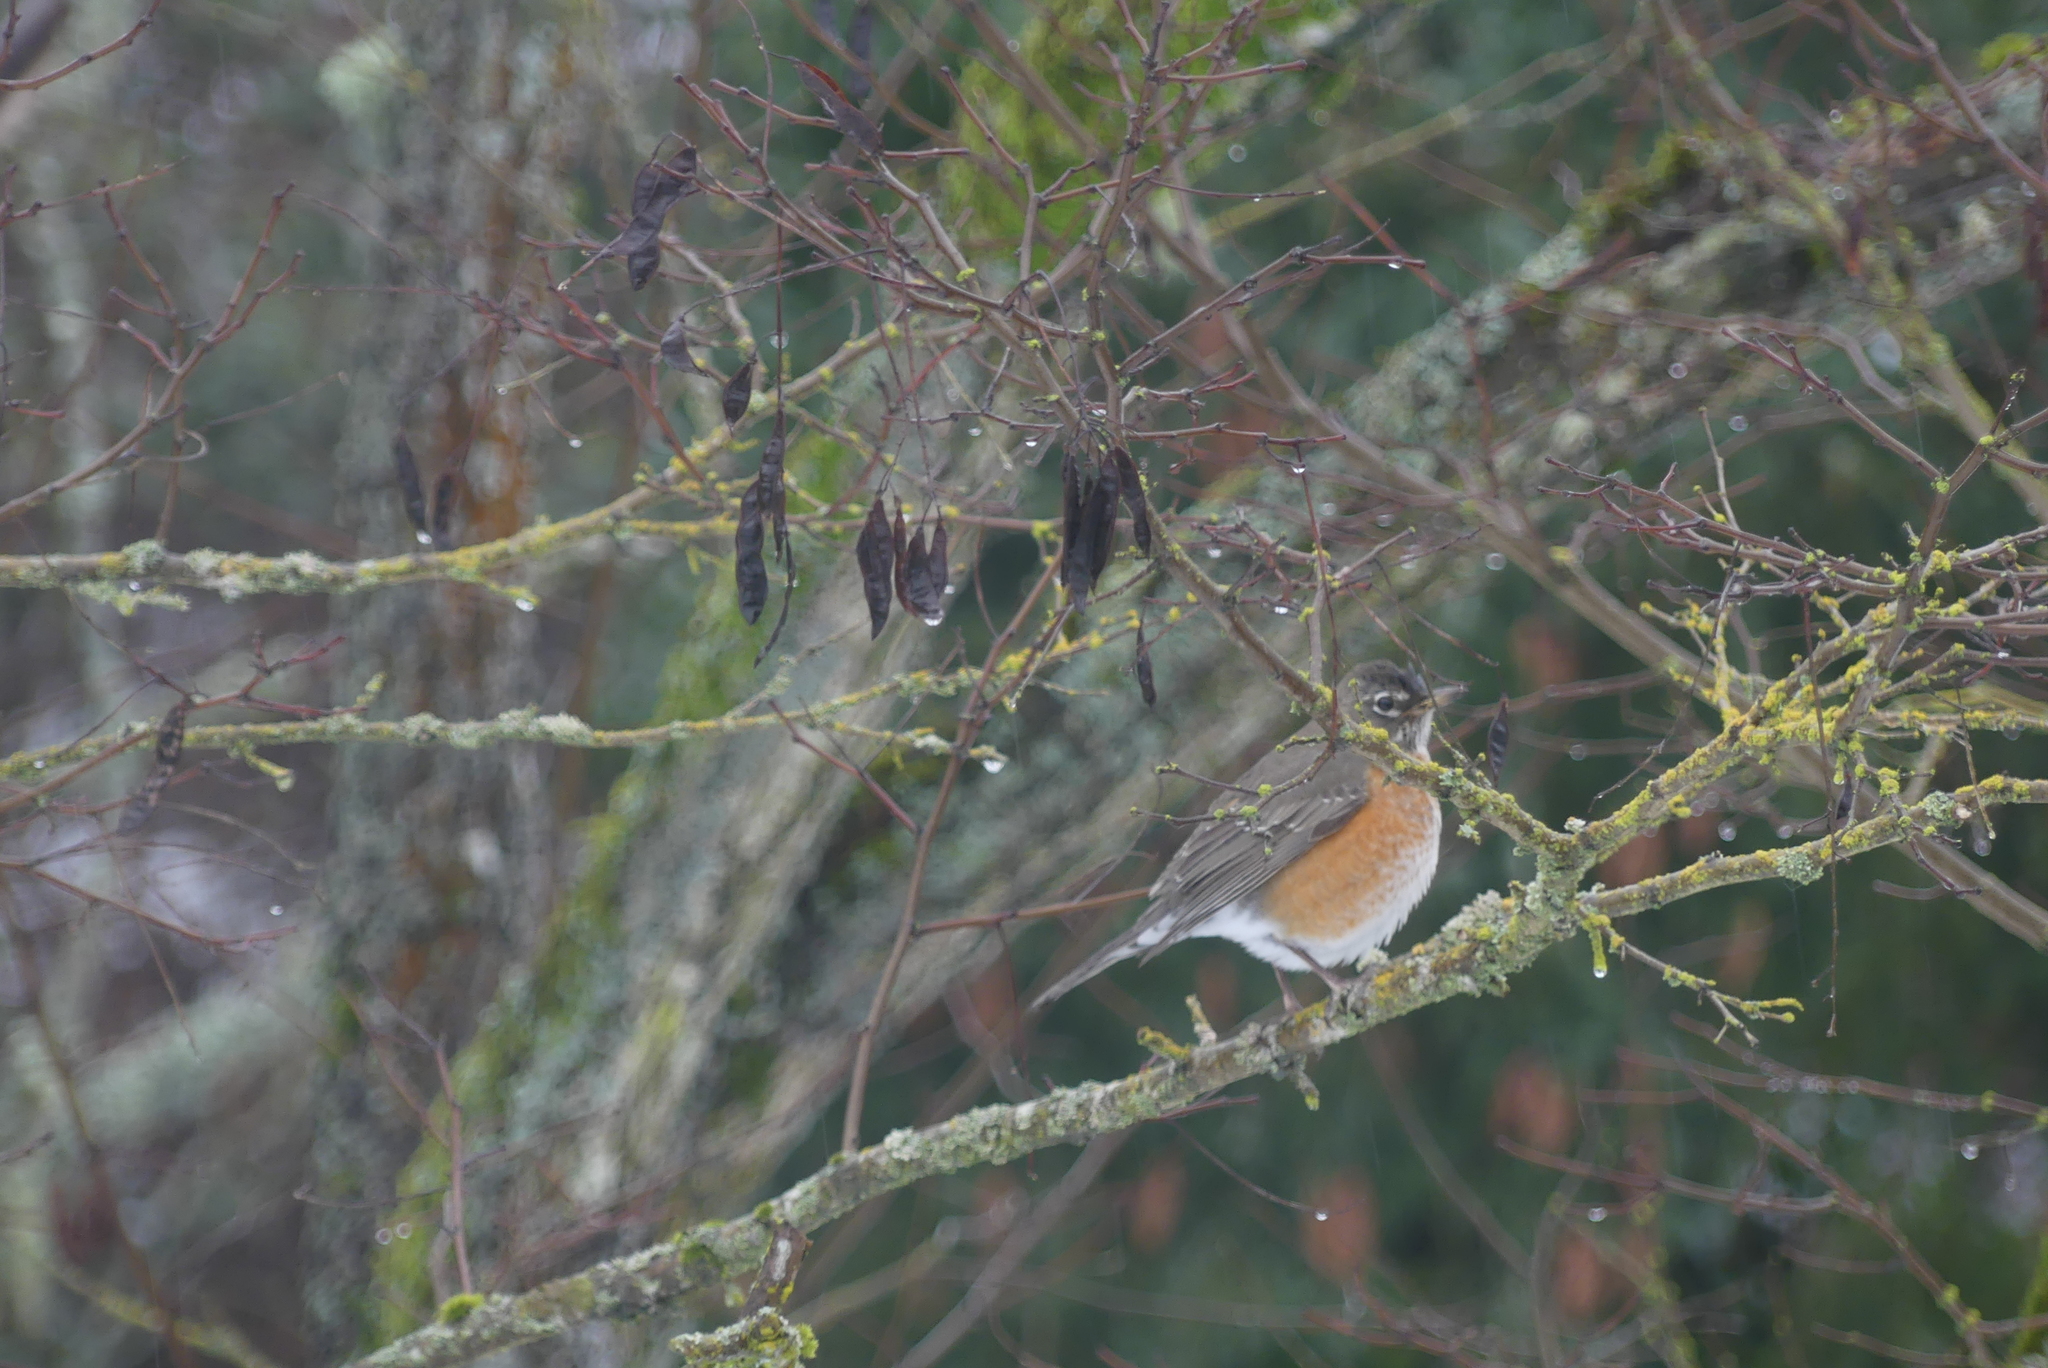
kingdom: Animalia
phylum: Chordata
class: Aves
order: Passeriformes
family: Turdidae
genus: Turdus
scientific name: Turdus migratorius
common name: American robin
